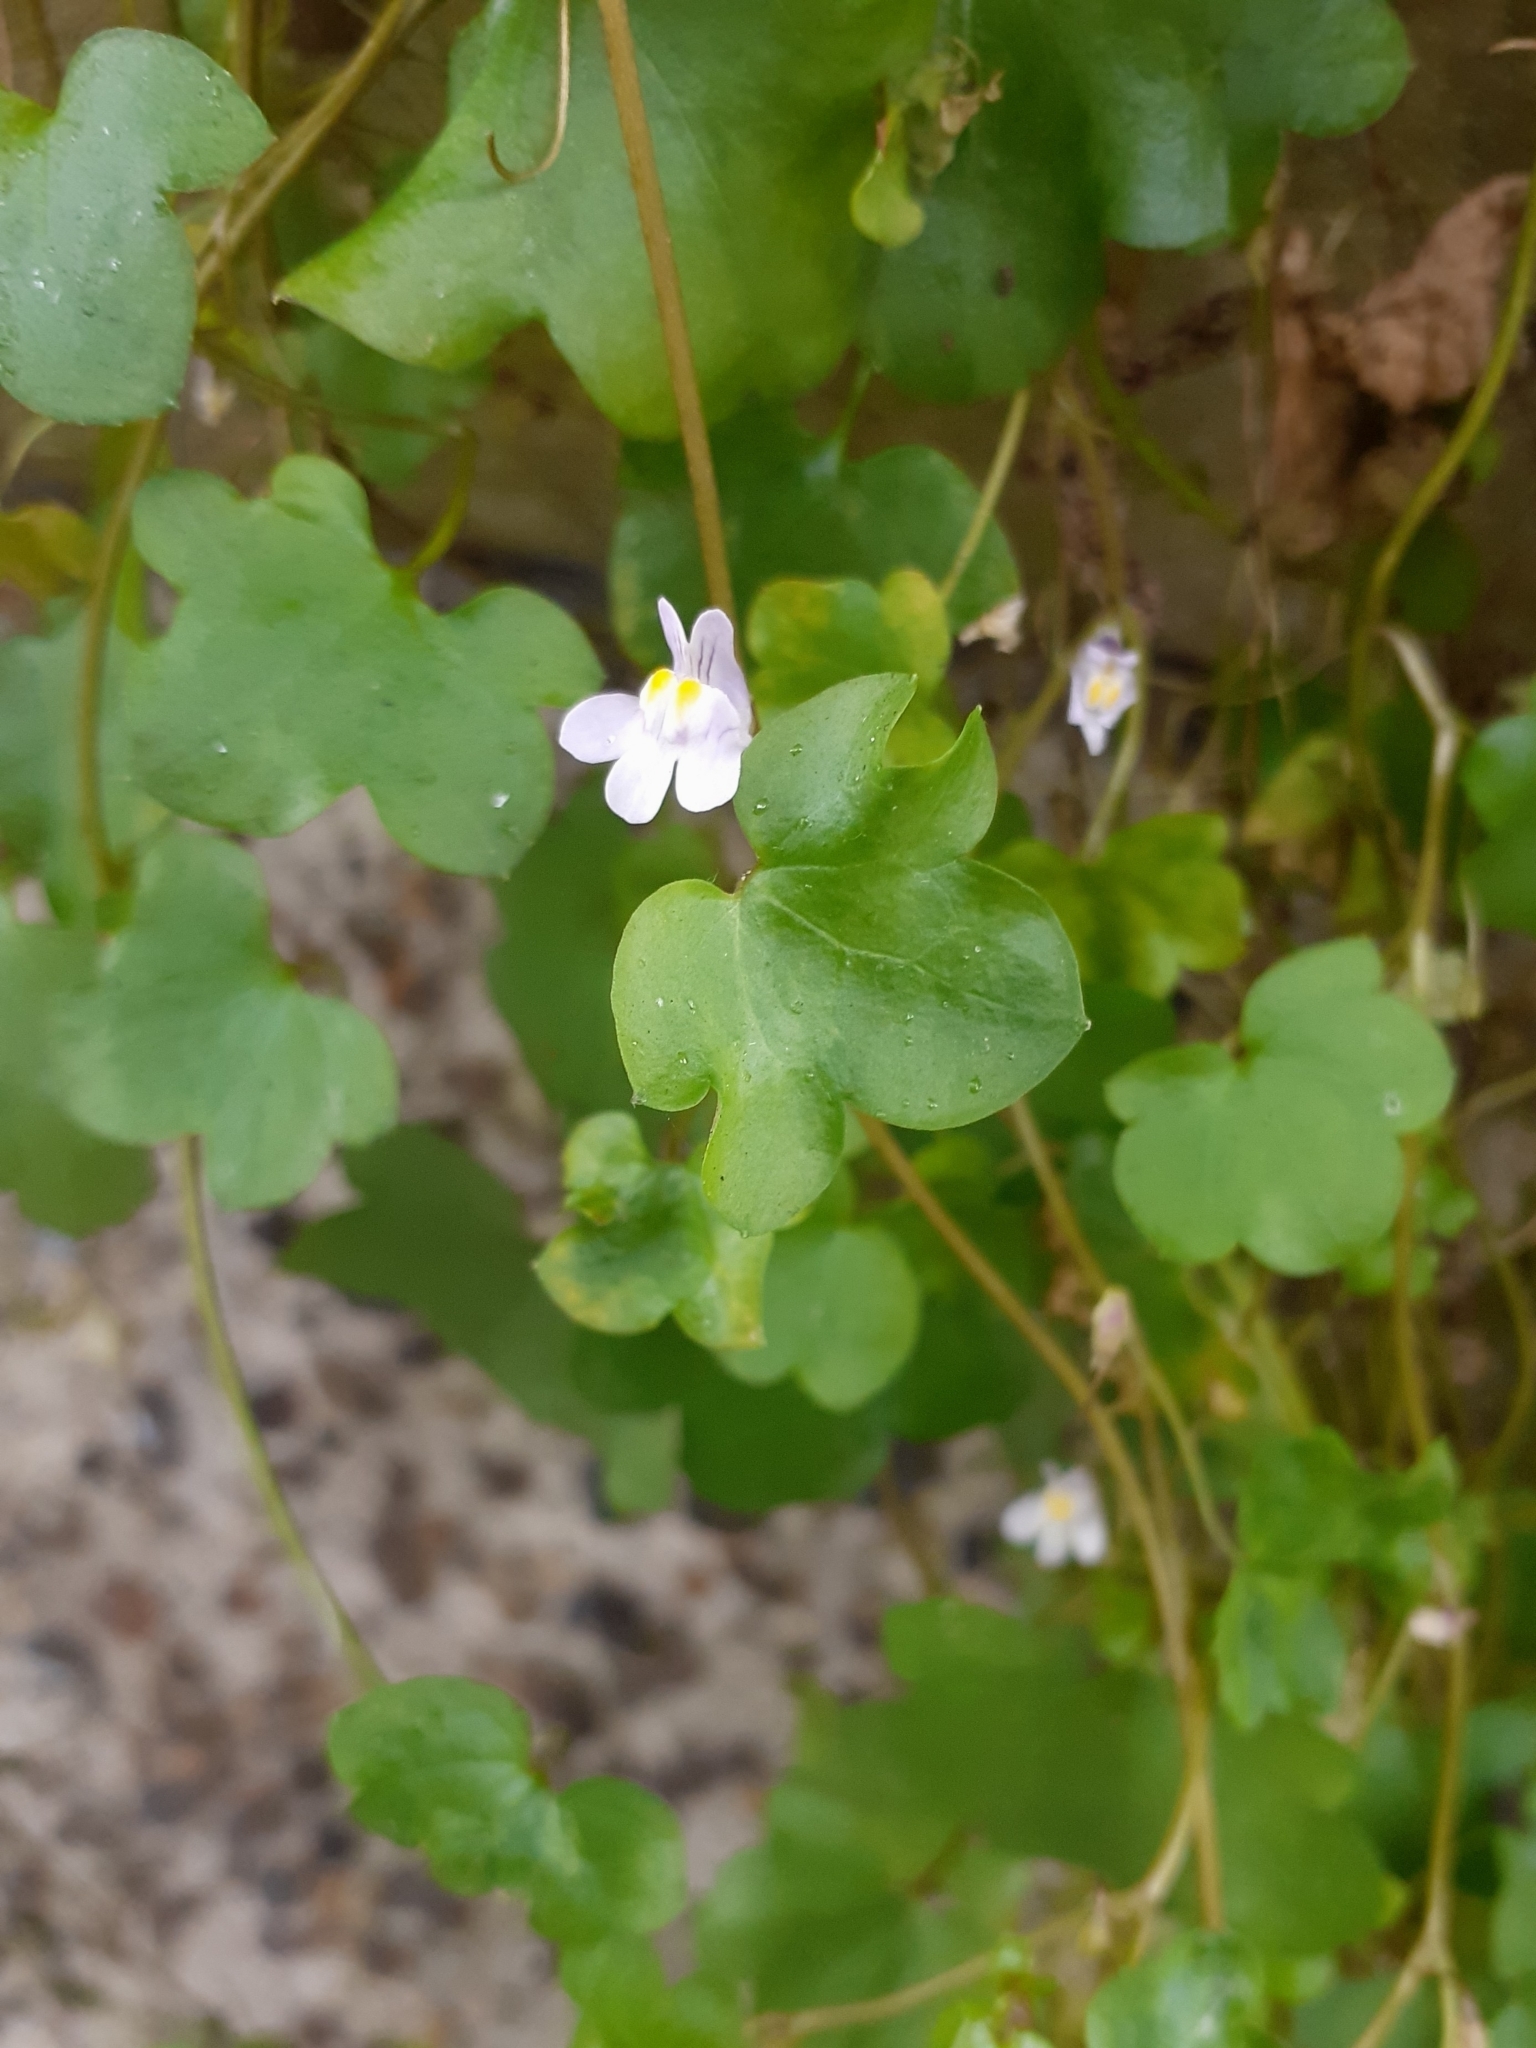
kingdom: Plantae
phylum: Tracheophyta
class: Magnoliopsida
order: Lamiales
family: Plantaginaceae
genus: Cymbalaria
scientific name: Cymbalaria muralis
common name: Ivy-leaved toadflax
